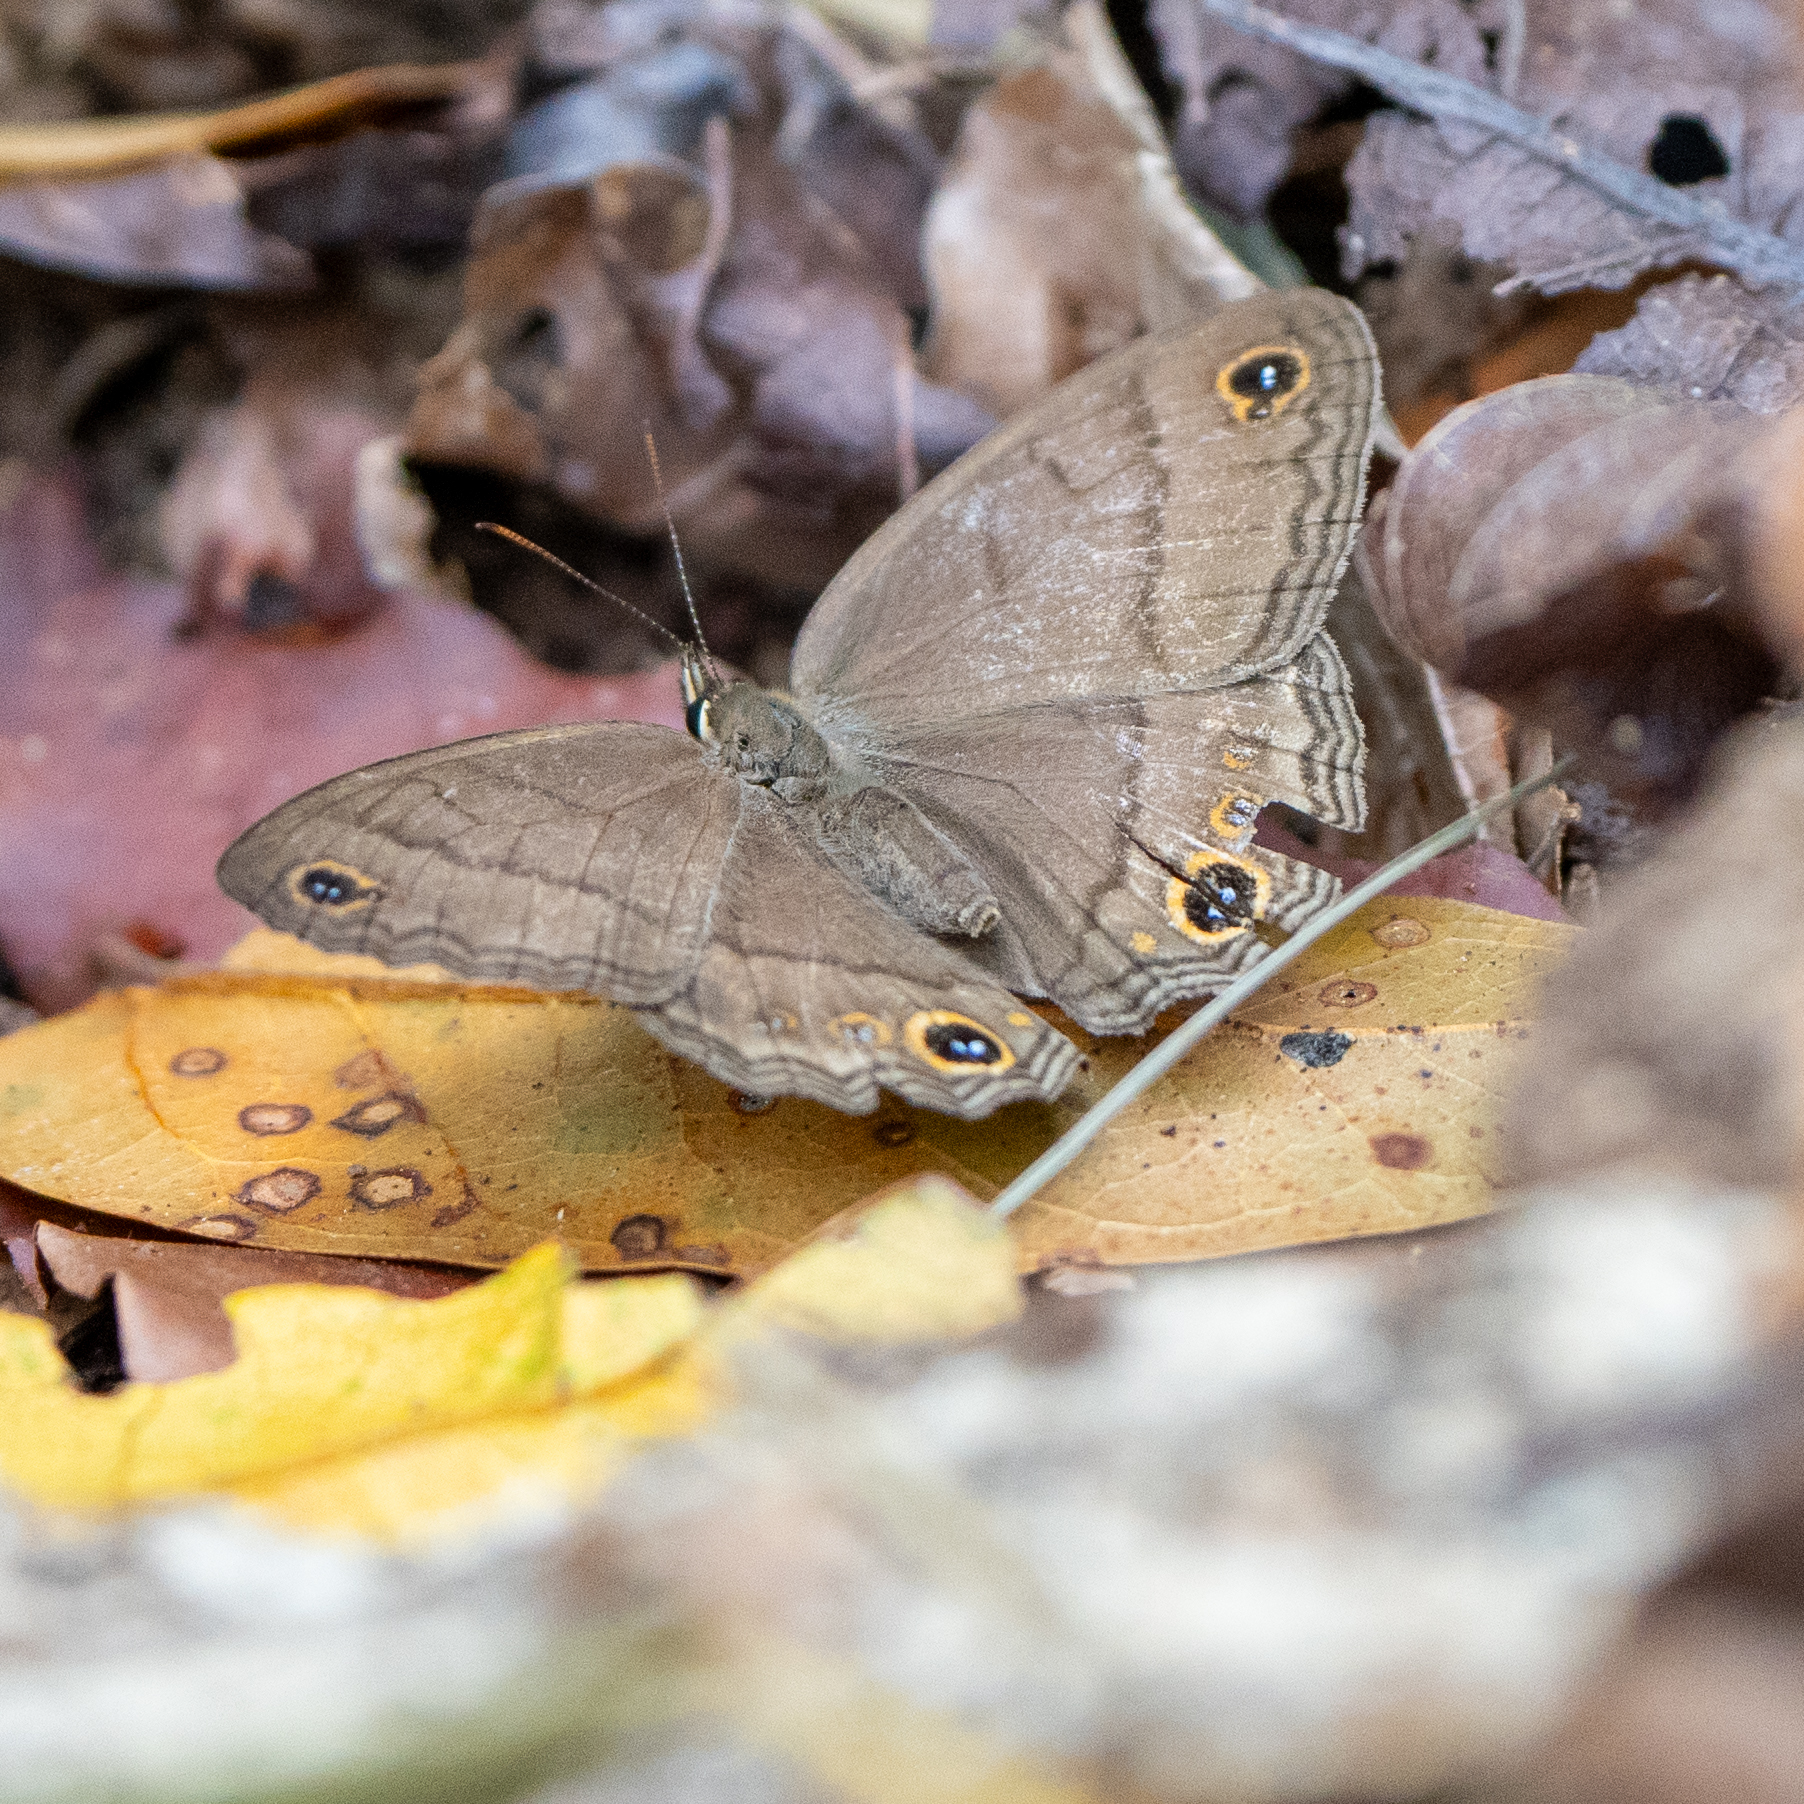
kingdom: Animalia
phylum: Arthropoda
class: Insecta
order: Lepidoptera
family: Nymphalidae
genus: Euptychia
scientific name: Euptychia Cissia pompilia
